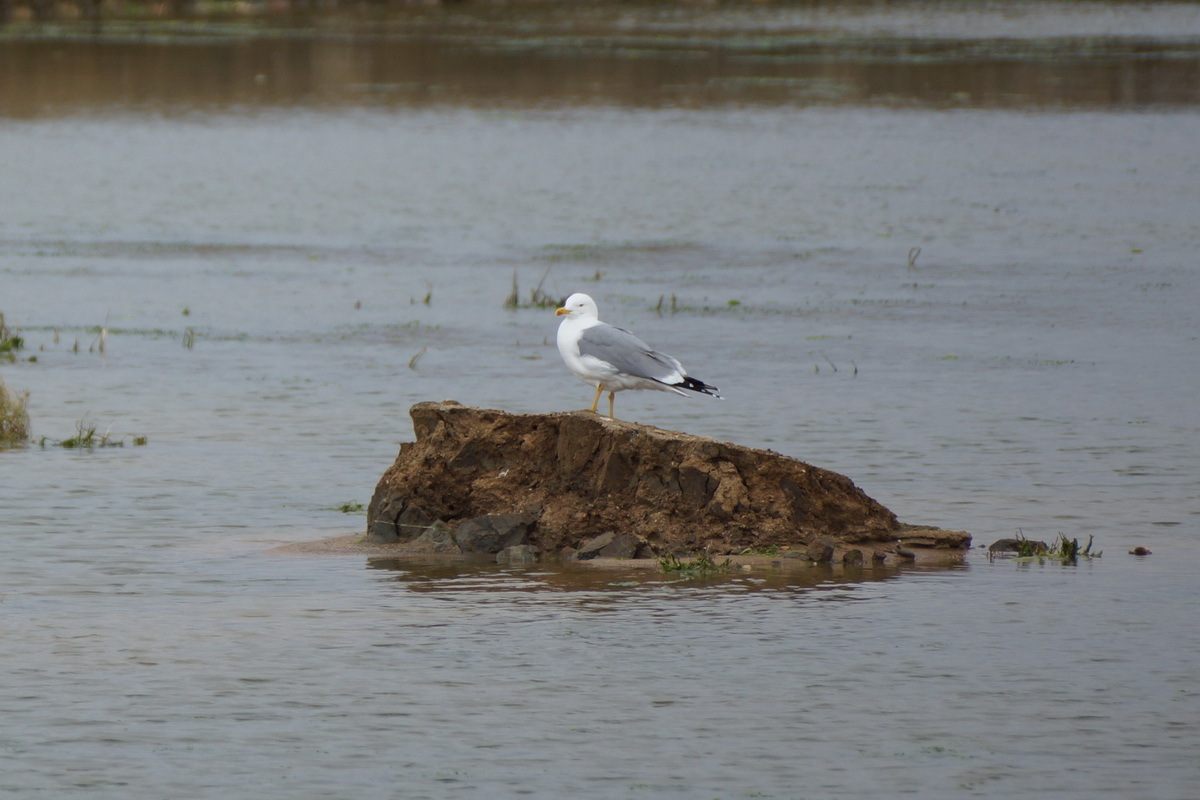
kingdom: Animalia
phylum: Chordata
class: Aves
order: Charadriiformes
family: Laridae
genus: Larus
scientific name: Larus michahellis
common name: Yellow-legged gull
